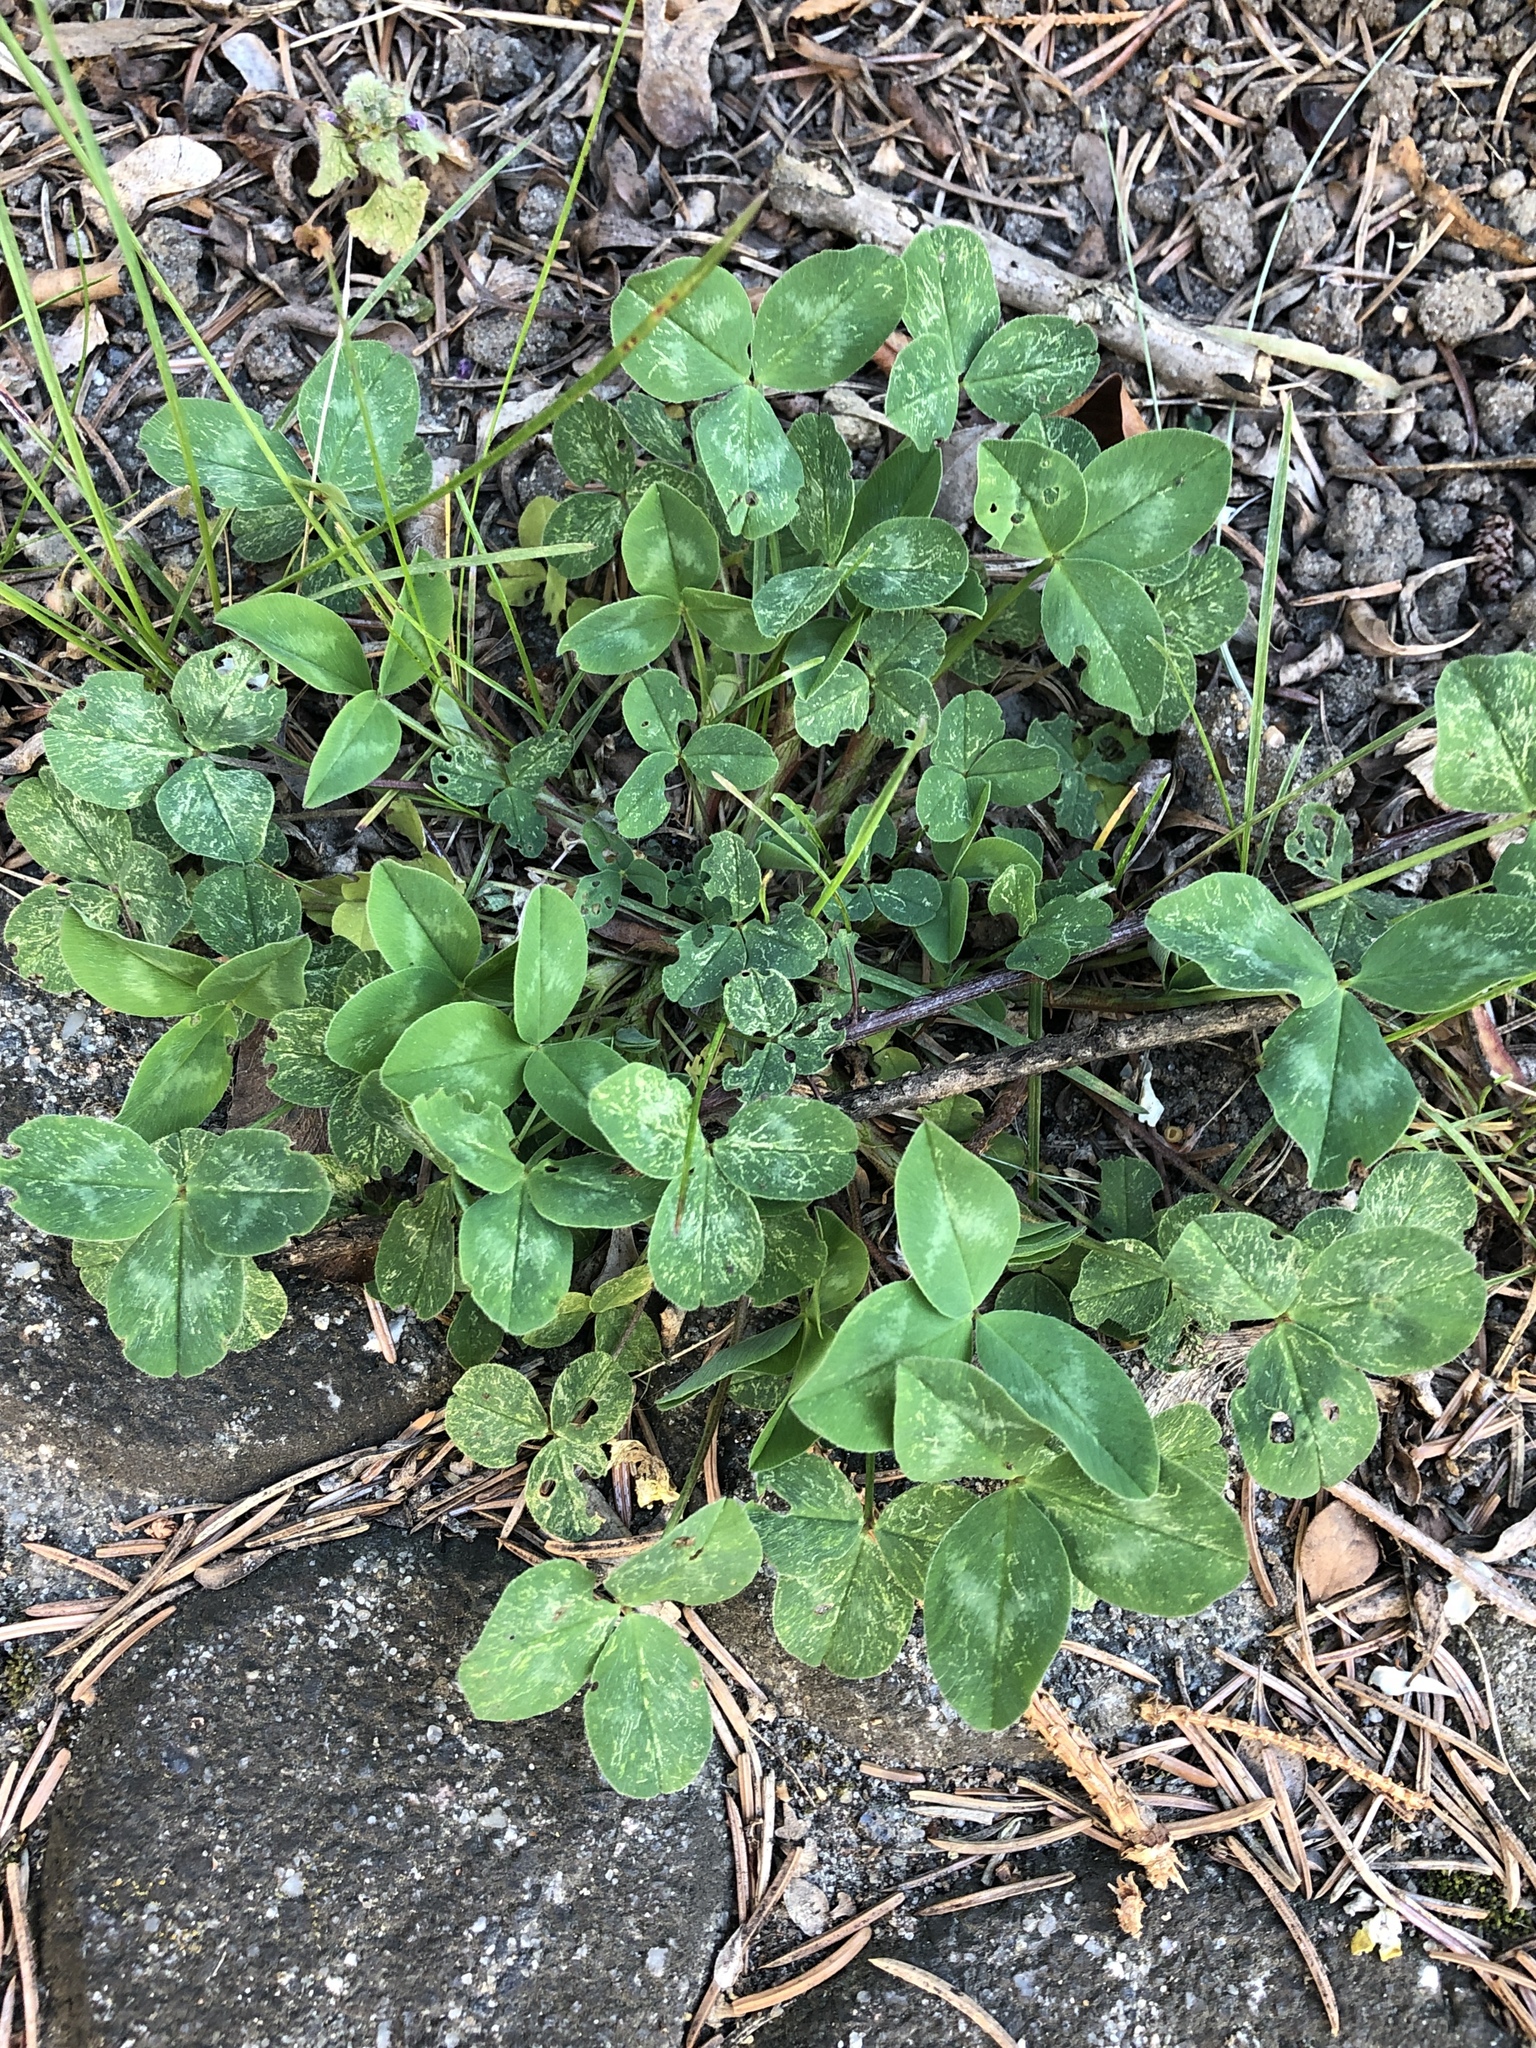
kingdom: Plantae
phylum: Tracheophyta
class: Magnoliopsida
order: Fabales
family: Fabaceae
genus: Trifolium
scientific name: Trifolium pratense
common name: Red clover
